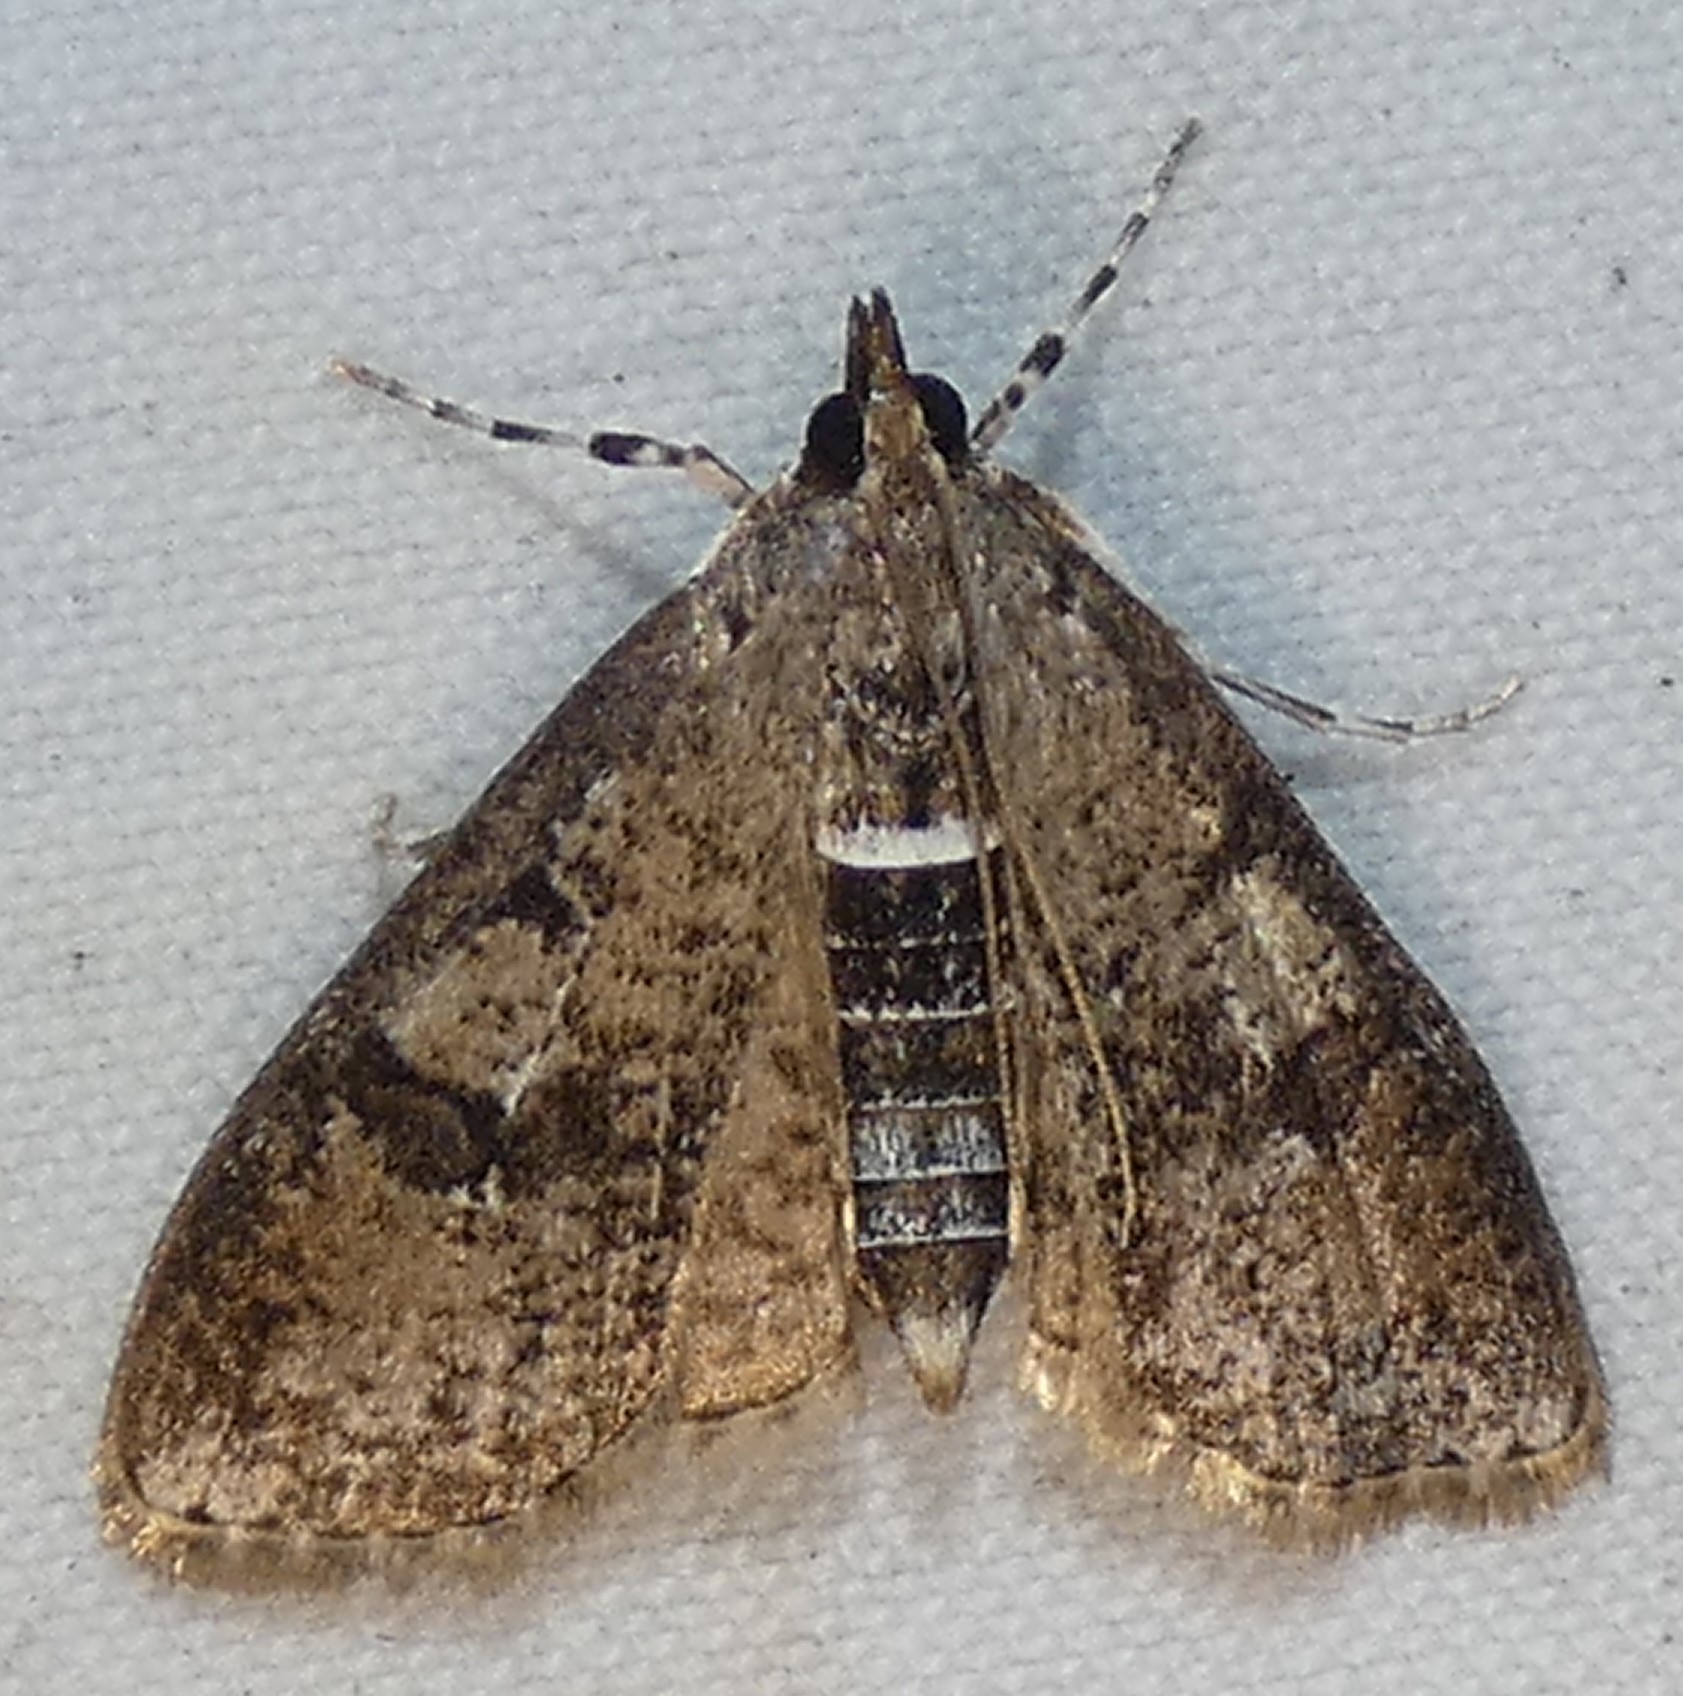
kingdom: Animalia
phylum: Arthropoda
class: Insecta
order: Lepidoptera
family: Crambidae
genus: Palpita
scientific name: Palpita magniferalis
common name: Splendid palpita moth
